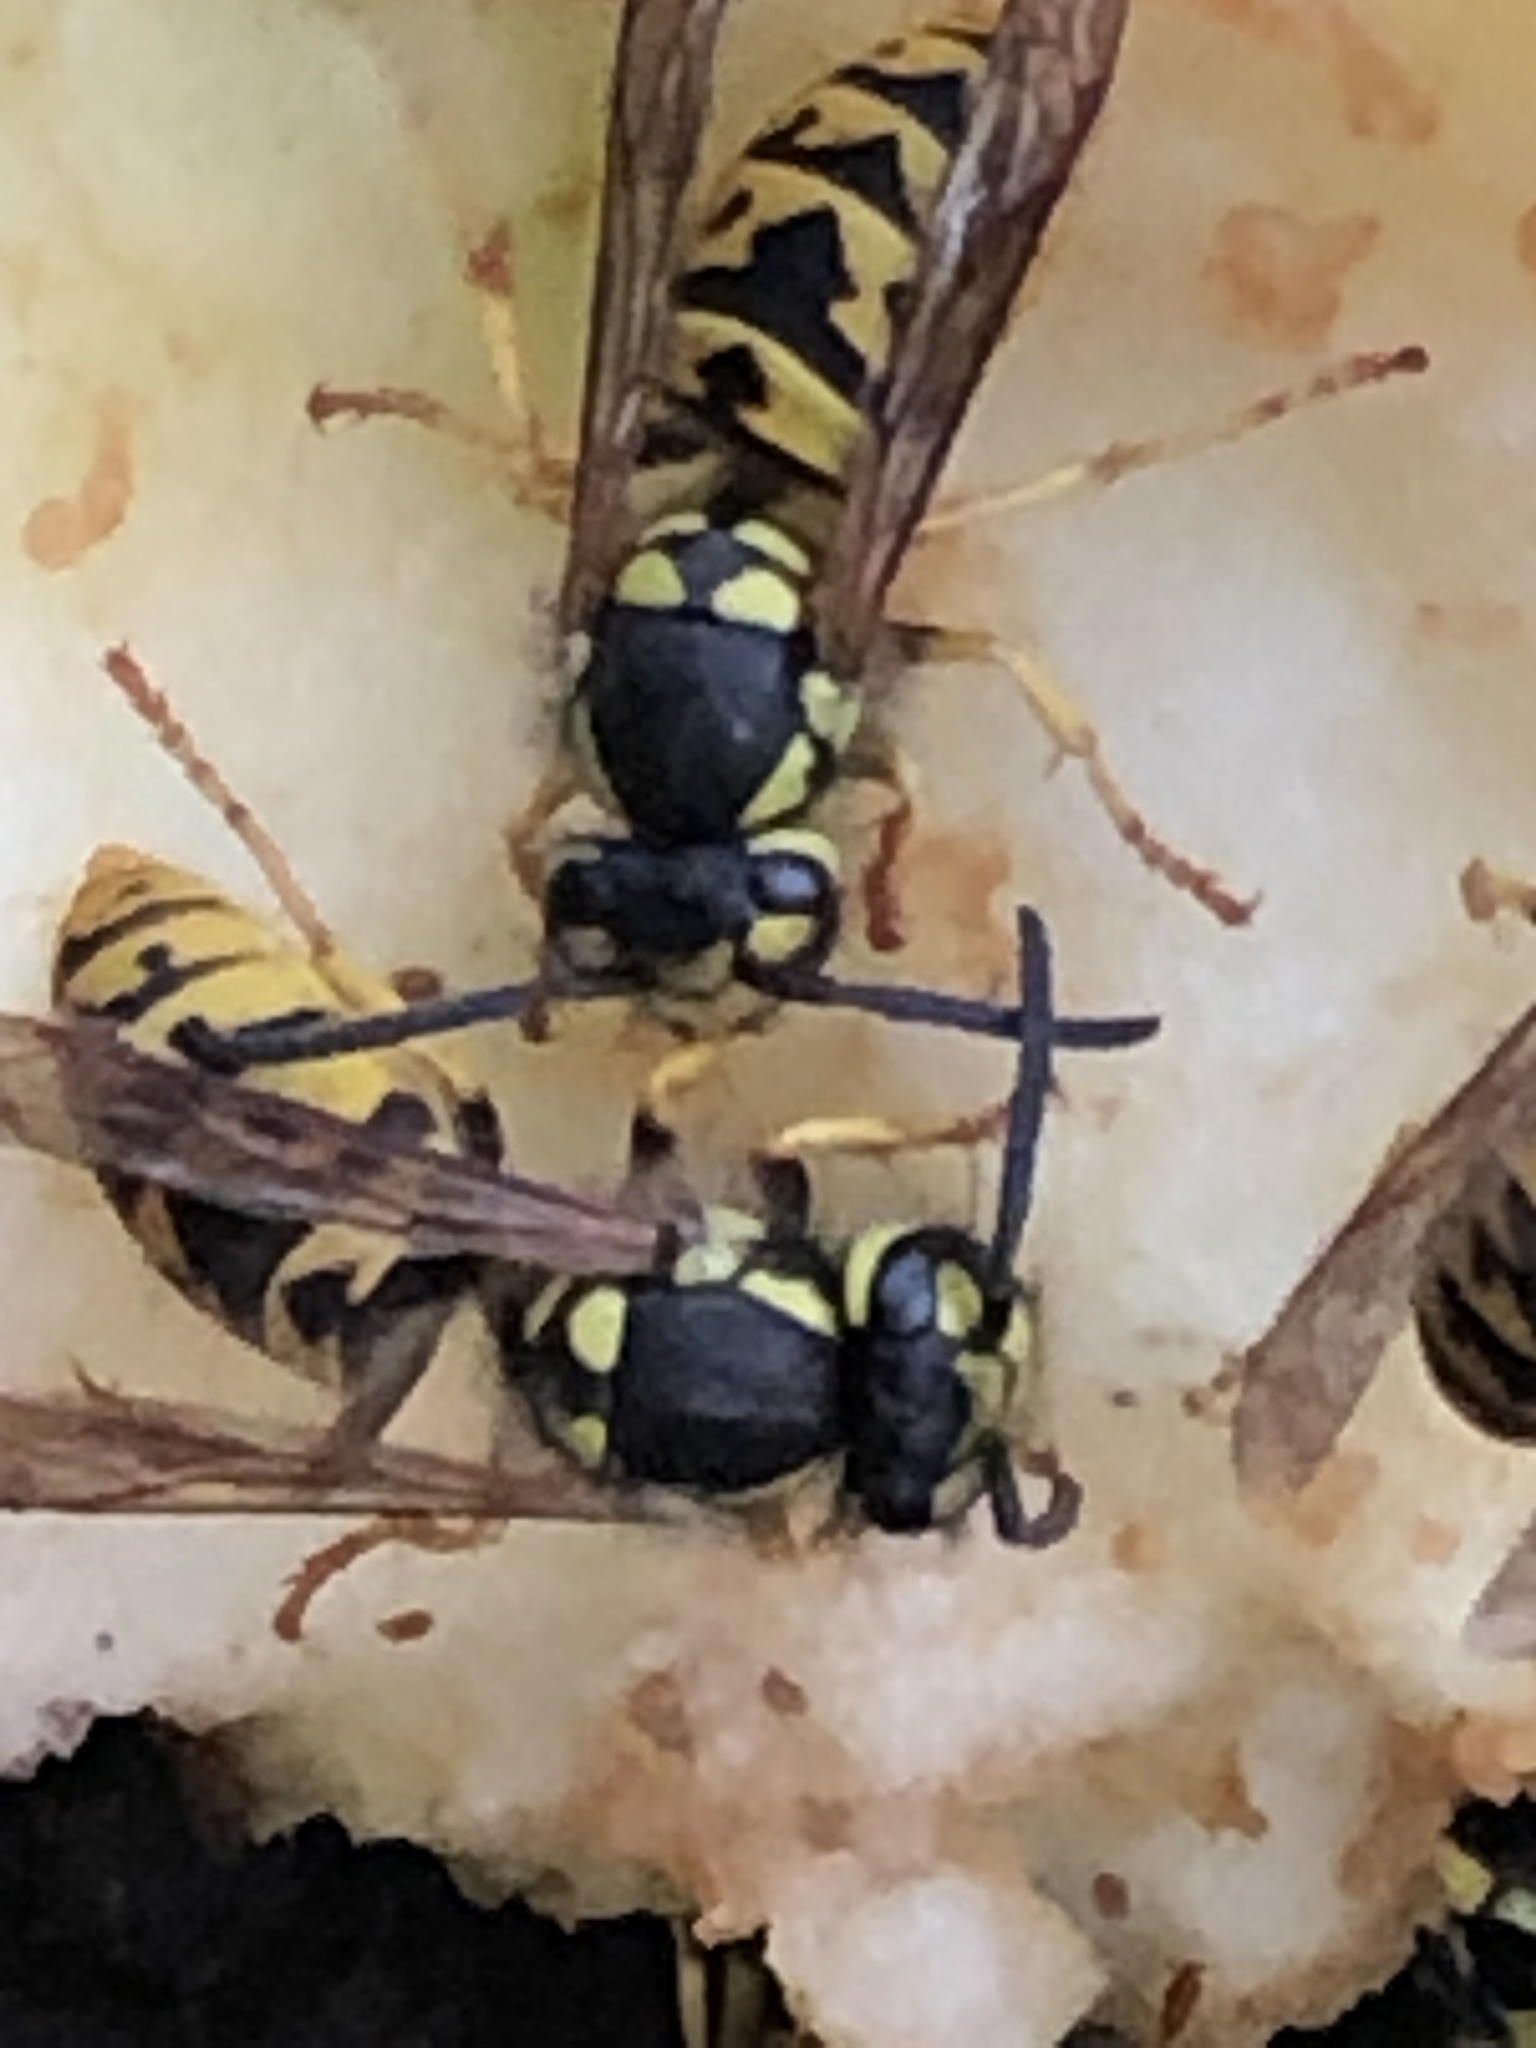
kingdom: Animalia
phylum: Arthropoda
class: Insecta
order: Hymenoptera
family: Vespidae
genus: Vespula
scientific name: Vespula germanica
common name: German wasp
